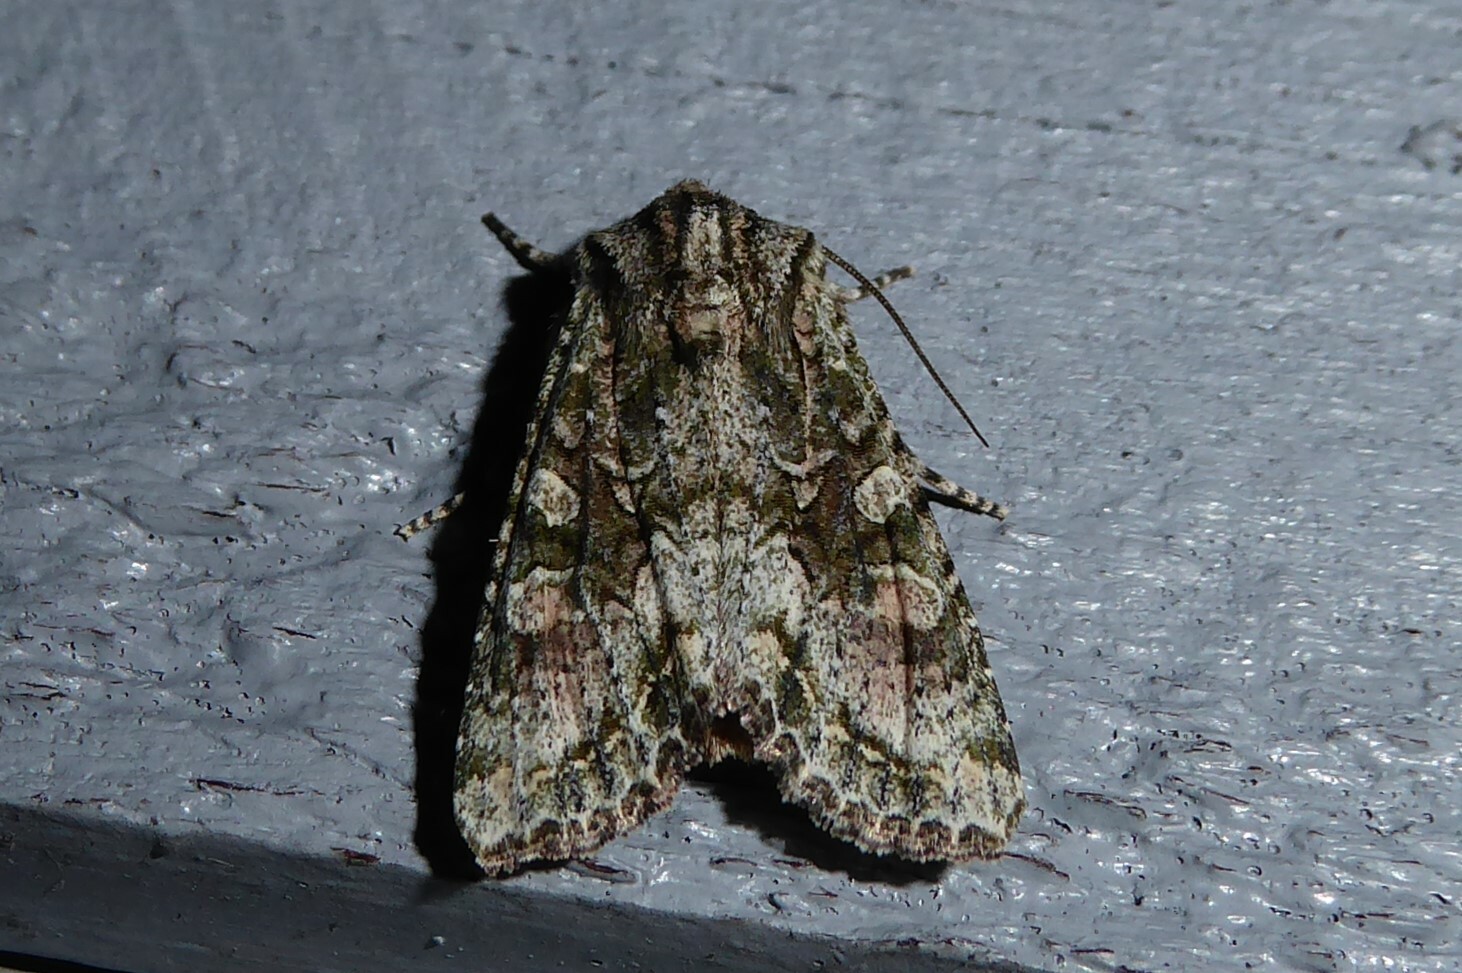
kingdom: Animalia
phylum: Arthropoda
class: Insecta
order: Lepidoptera
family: Noctuidae
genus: Ichneutica
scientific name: Ichneutica mutans
